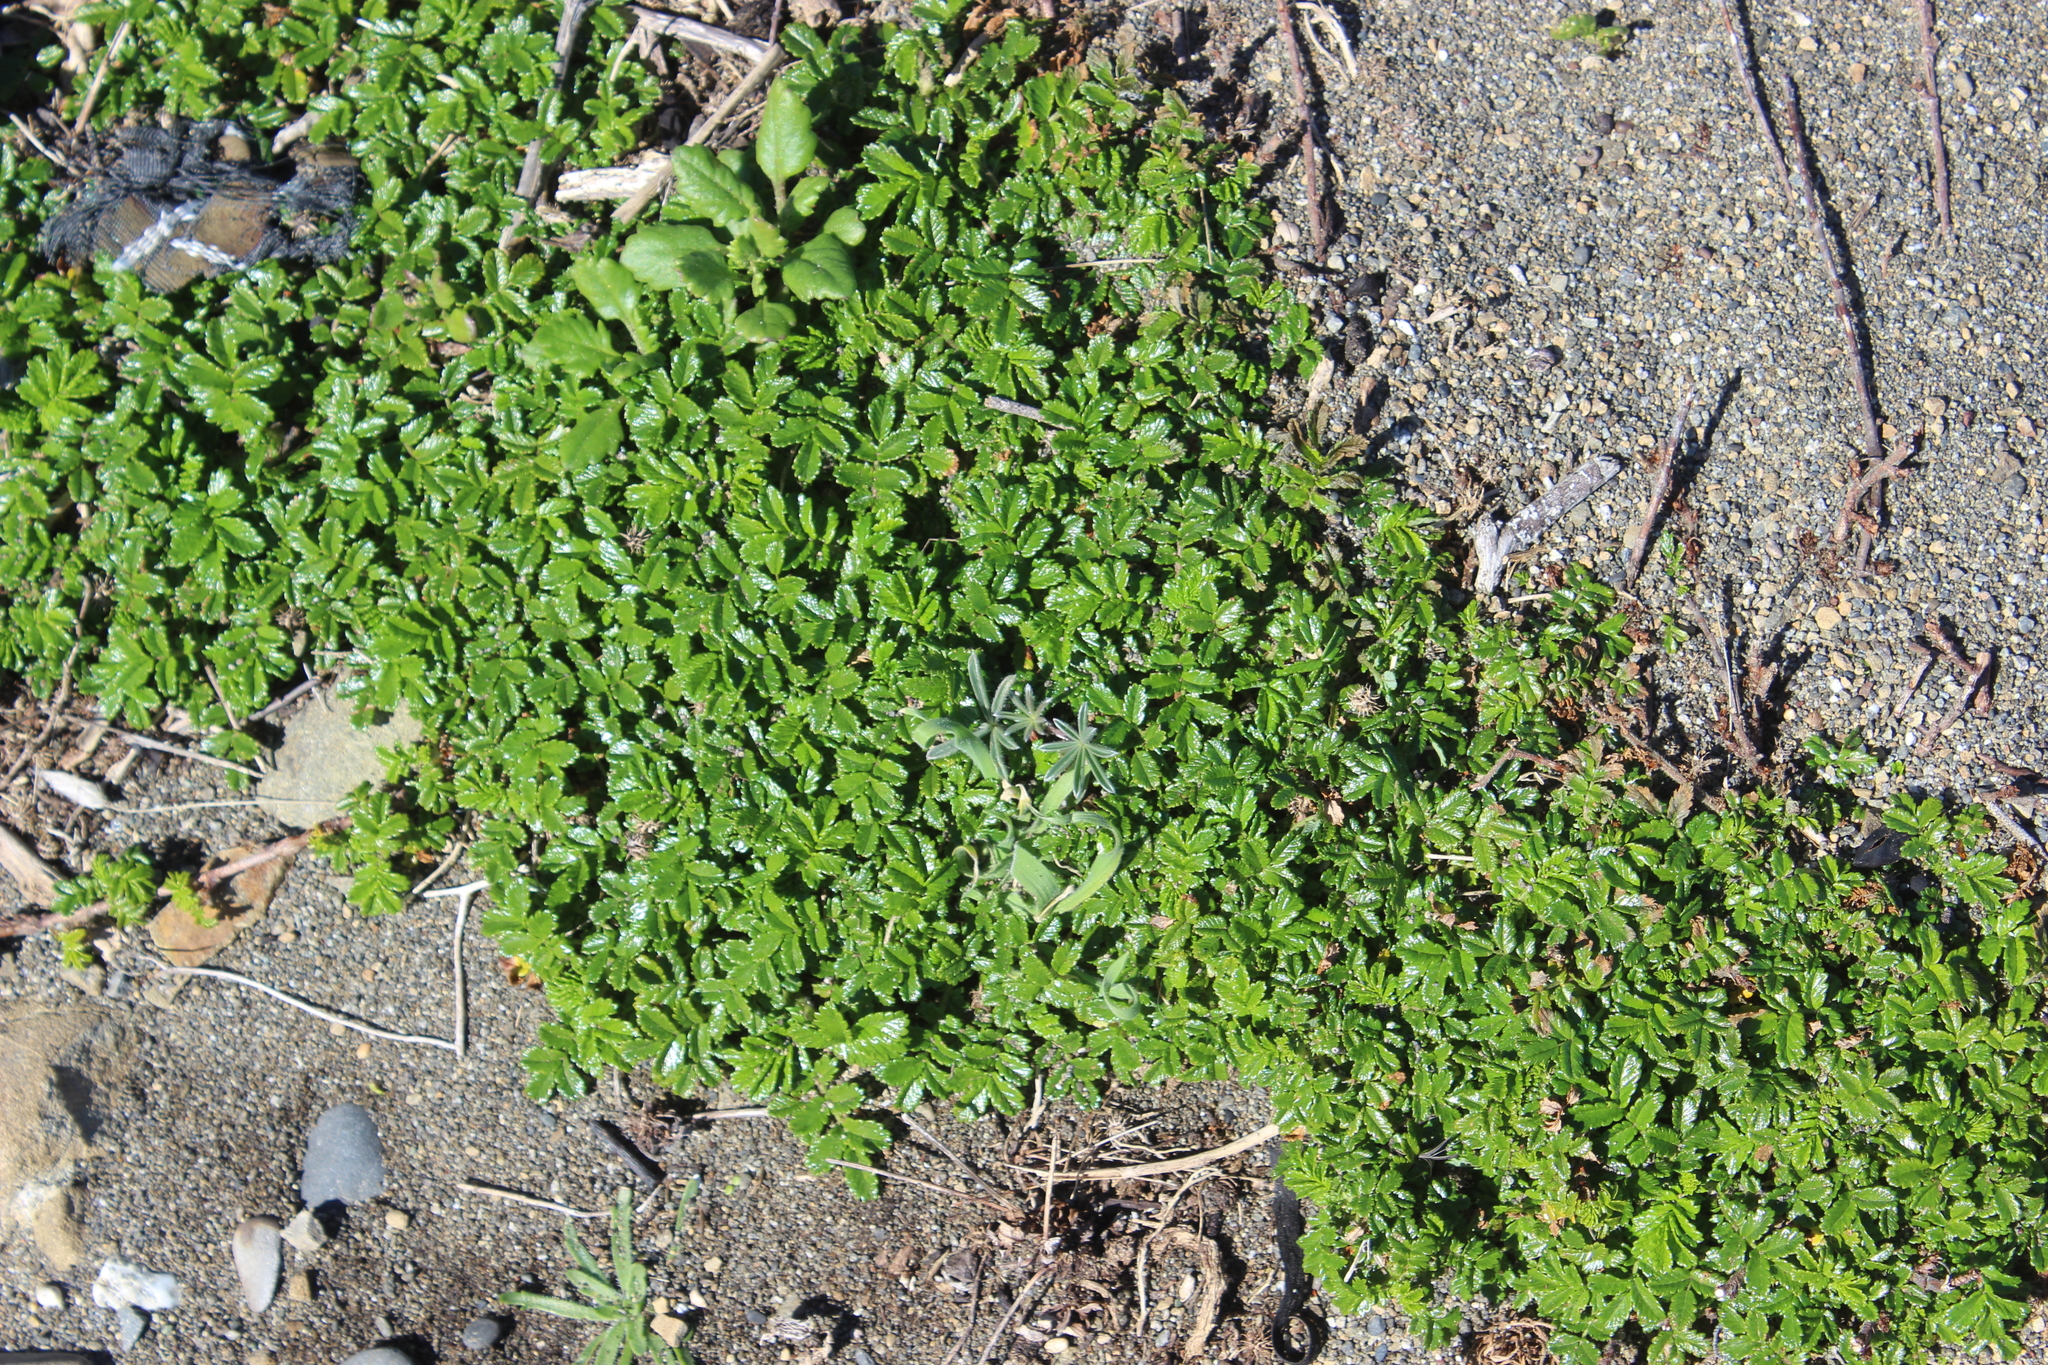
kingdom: Plantae
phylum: Tracheophyta
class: Magnoliopsida
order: Rosales
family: Rosaceae
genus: Acaena
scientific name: Acaena pallida
